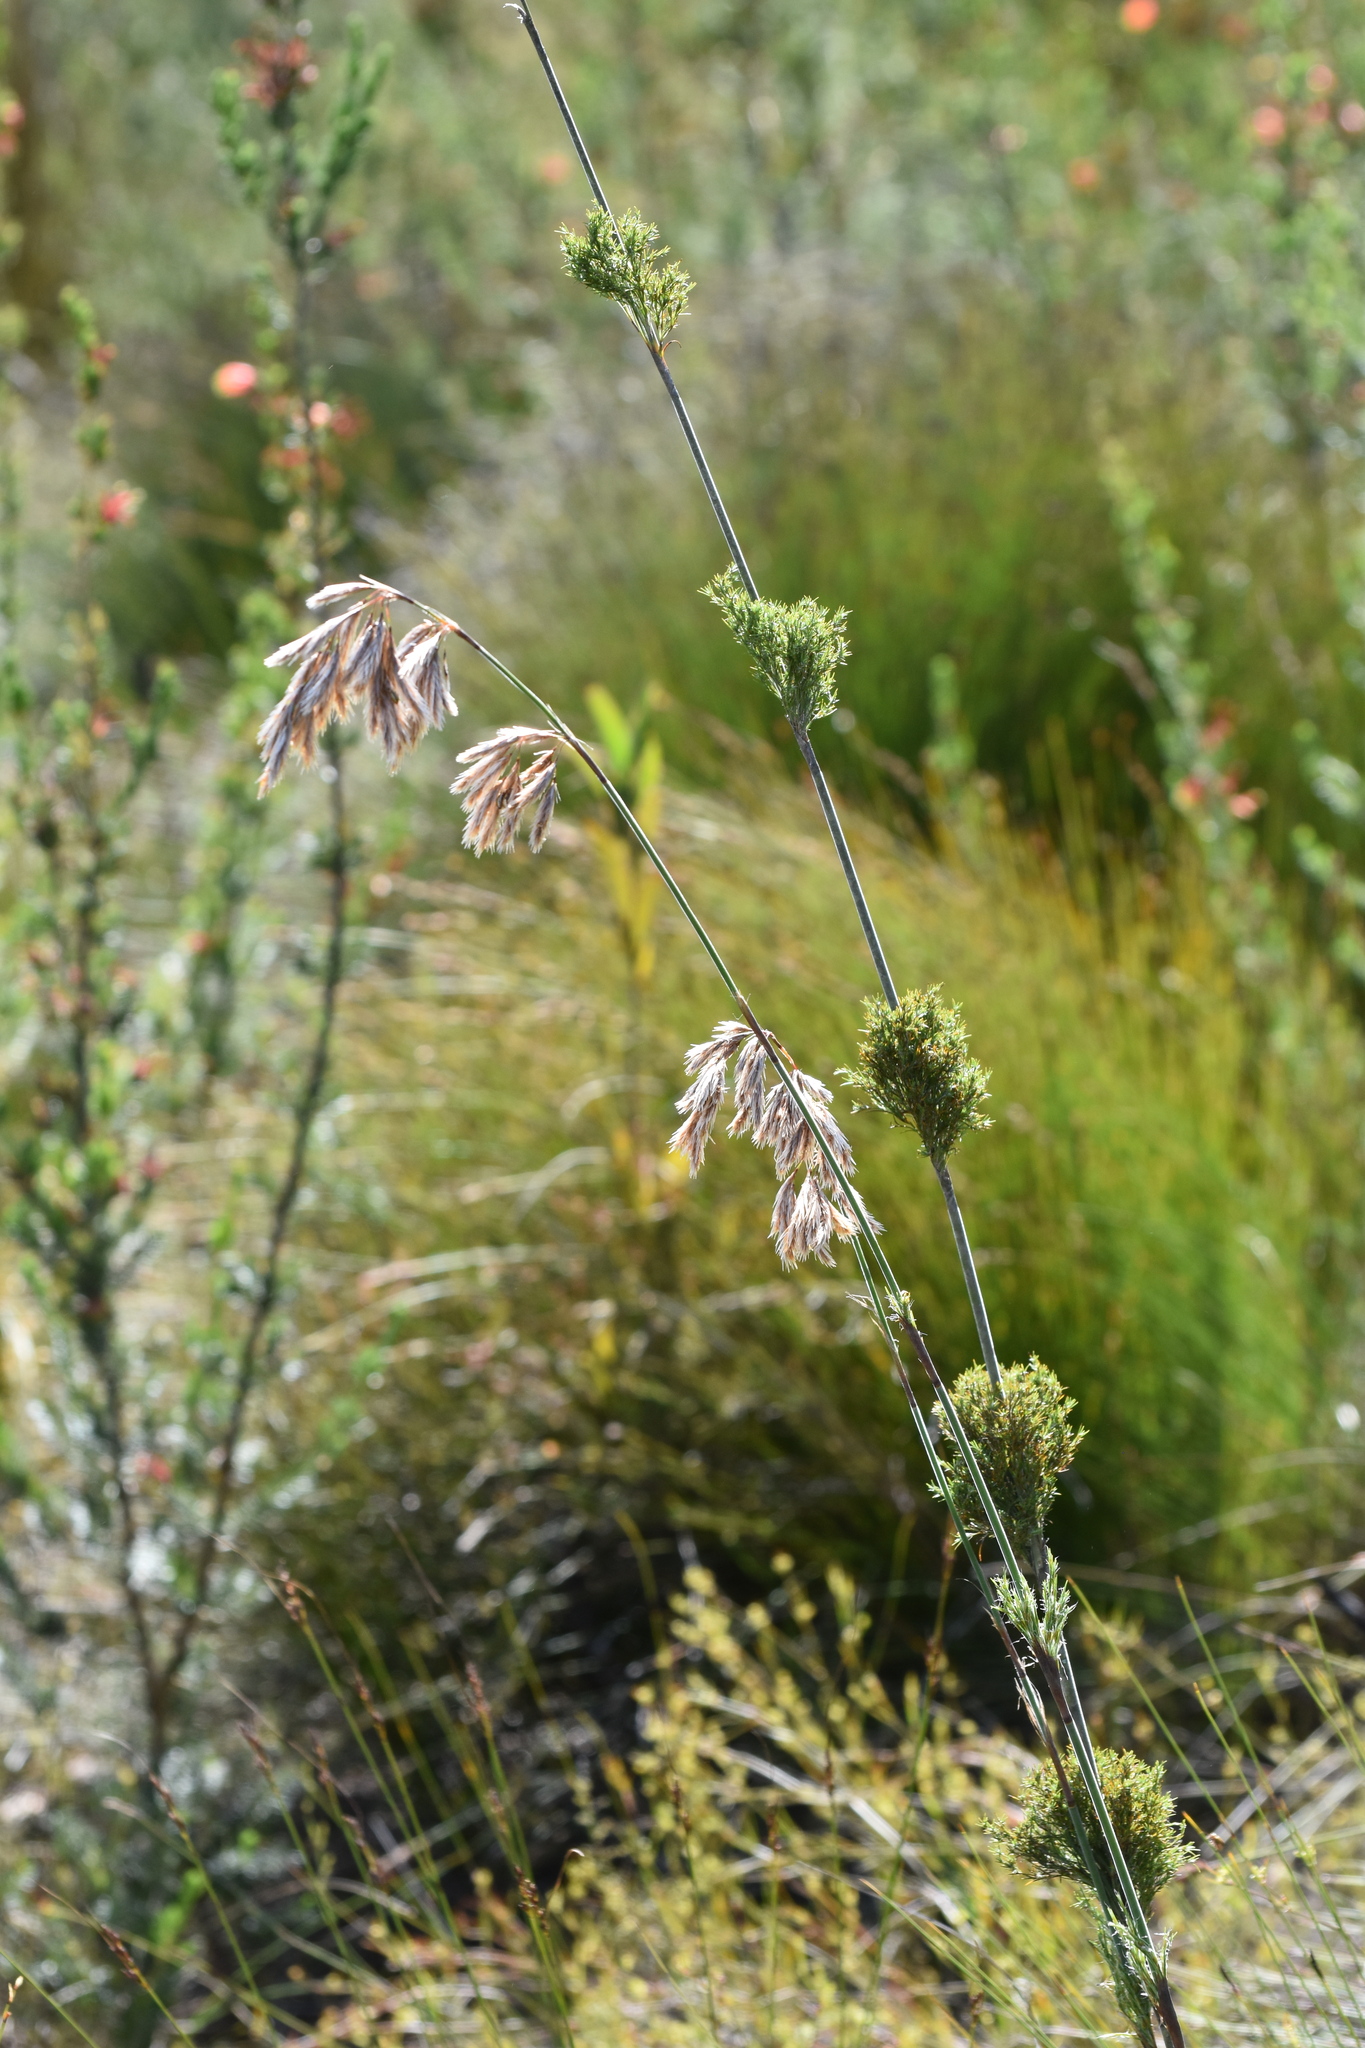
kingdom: Plantae
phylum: Tracheophyta
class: Liliopsida
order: Poales
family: Restionaceae
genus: Thamnochortus
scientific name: Thamnochortus cinereus
